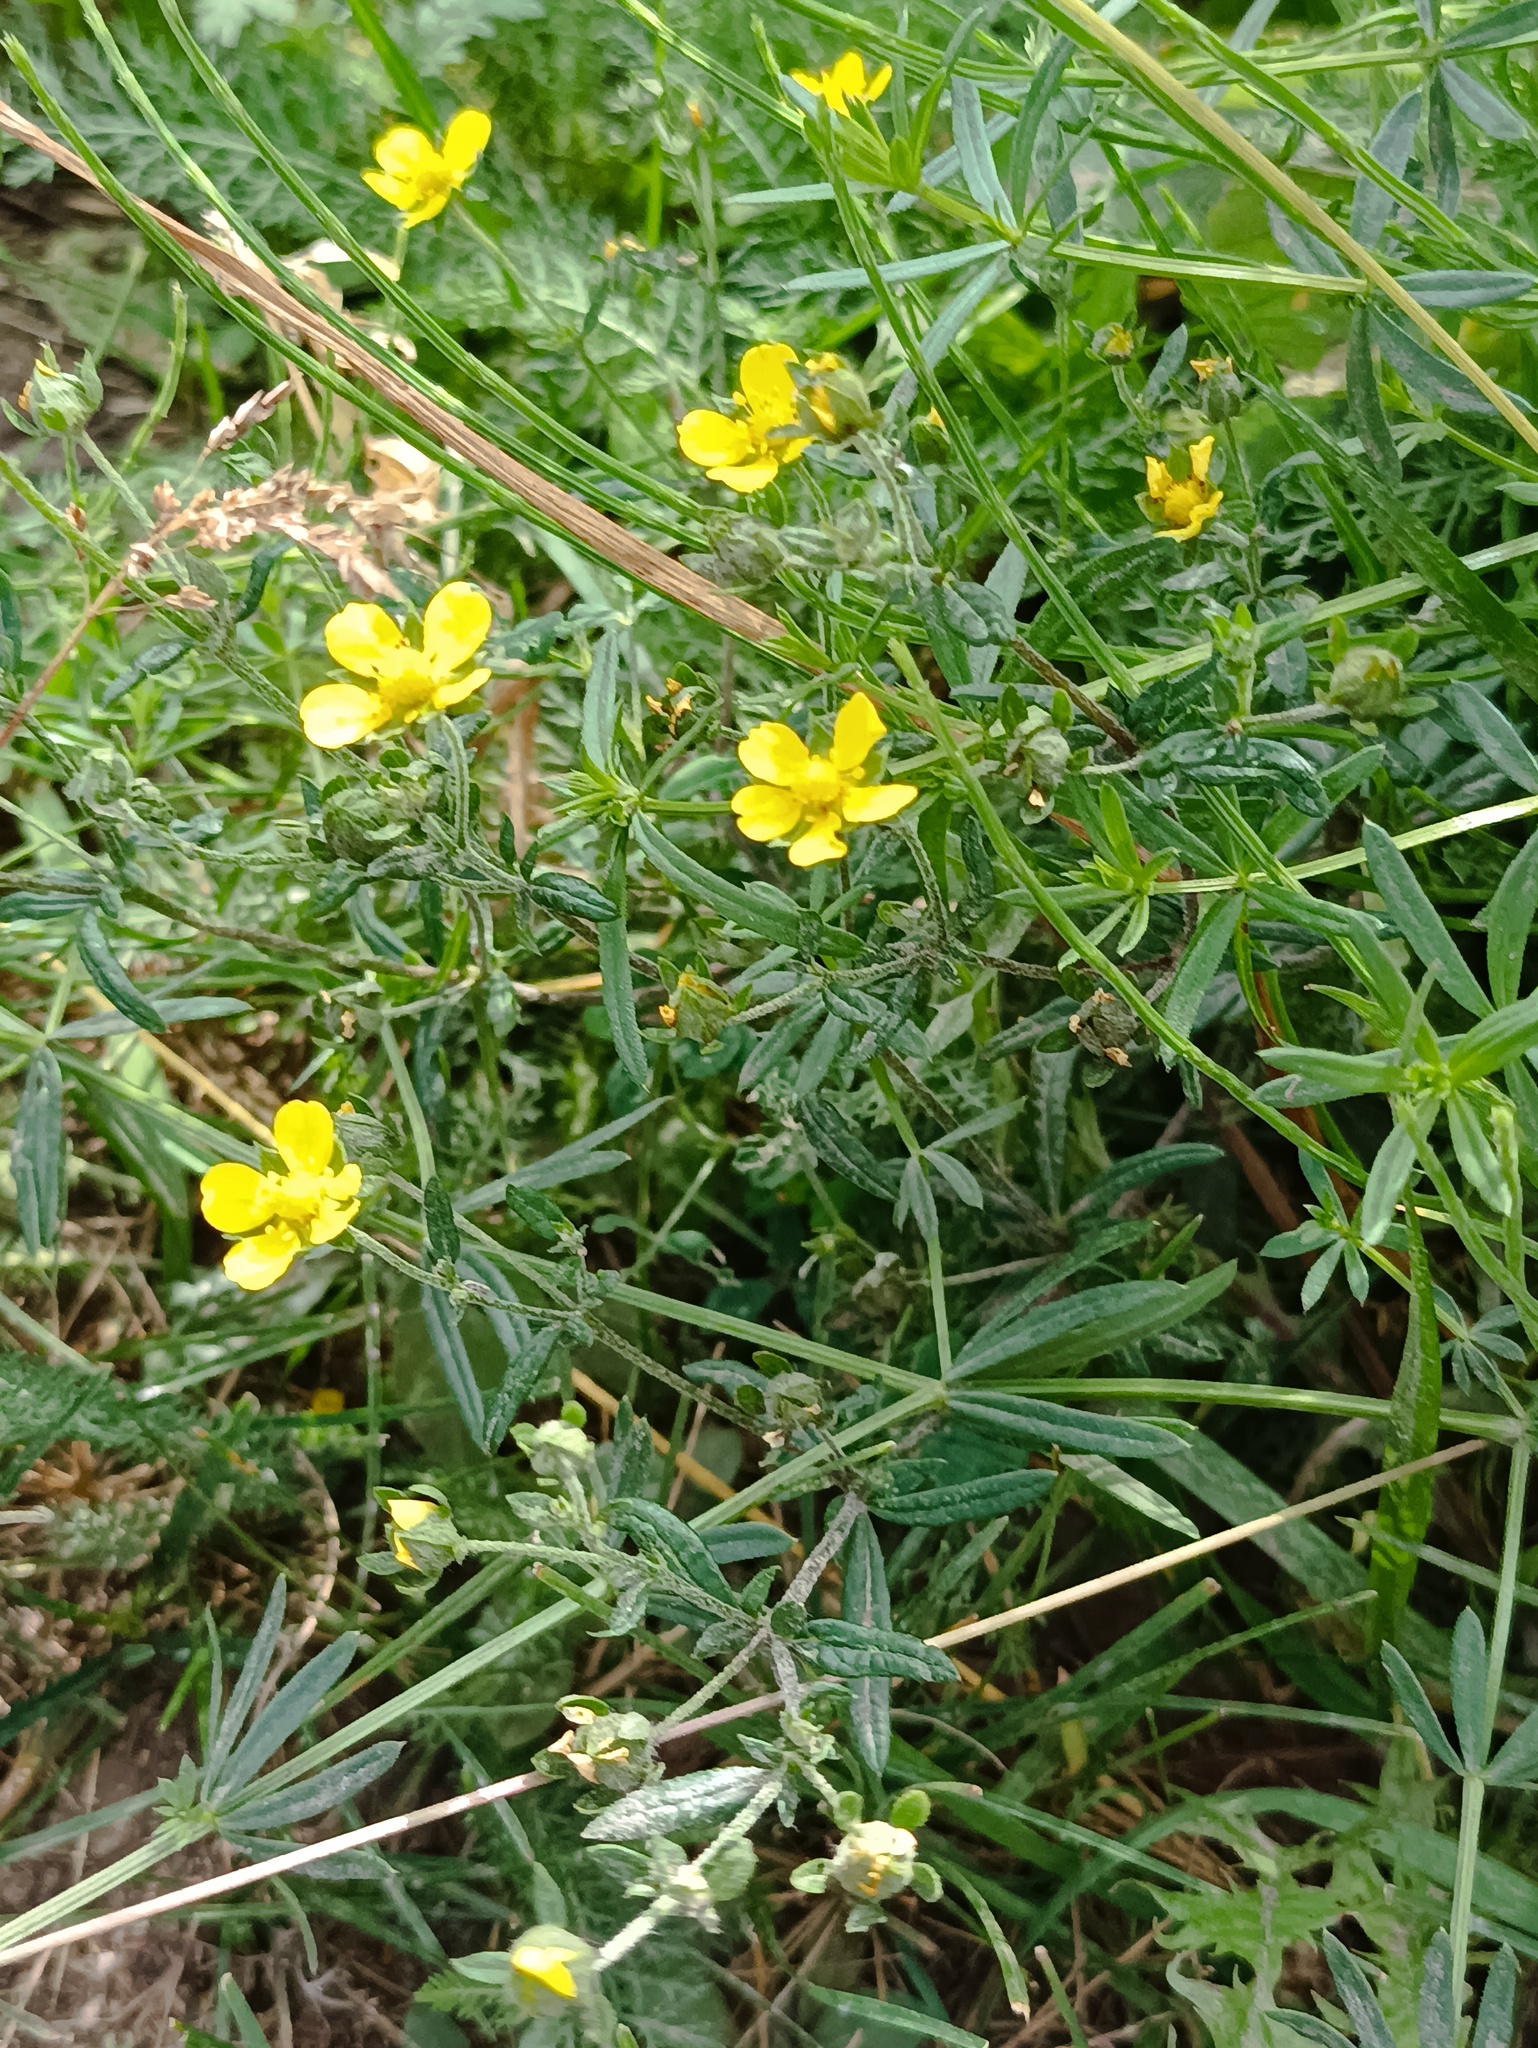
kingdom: Plantae
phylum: Tracheophyta
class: Magnoliopsida
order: Rosales
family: Rosaceae
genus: Potentilla
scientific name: Potentilla argentea
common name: Hoary cinquefoil
